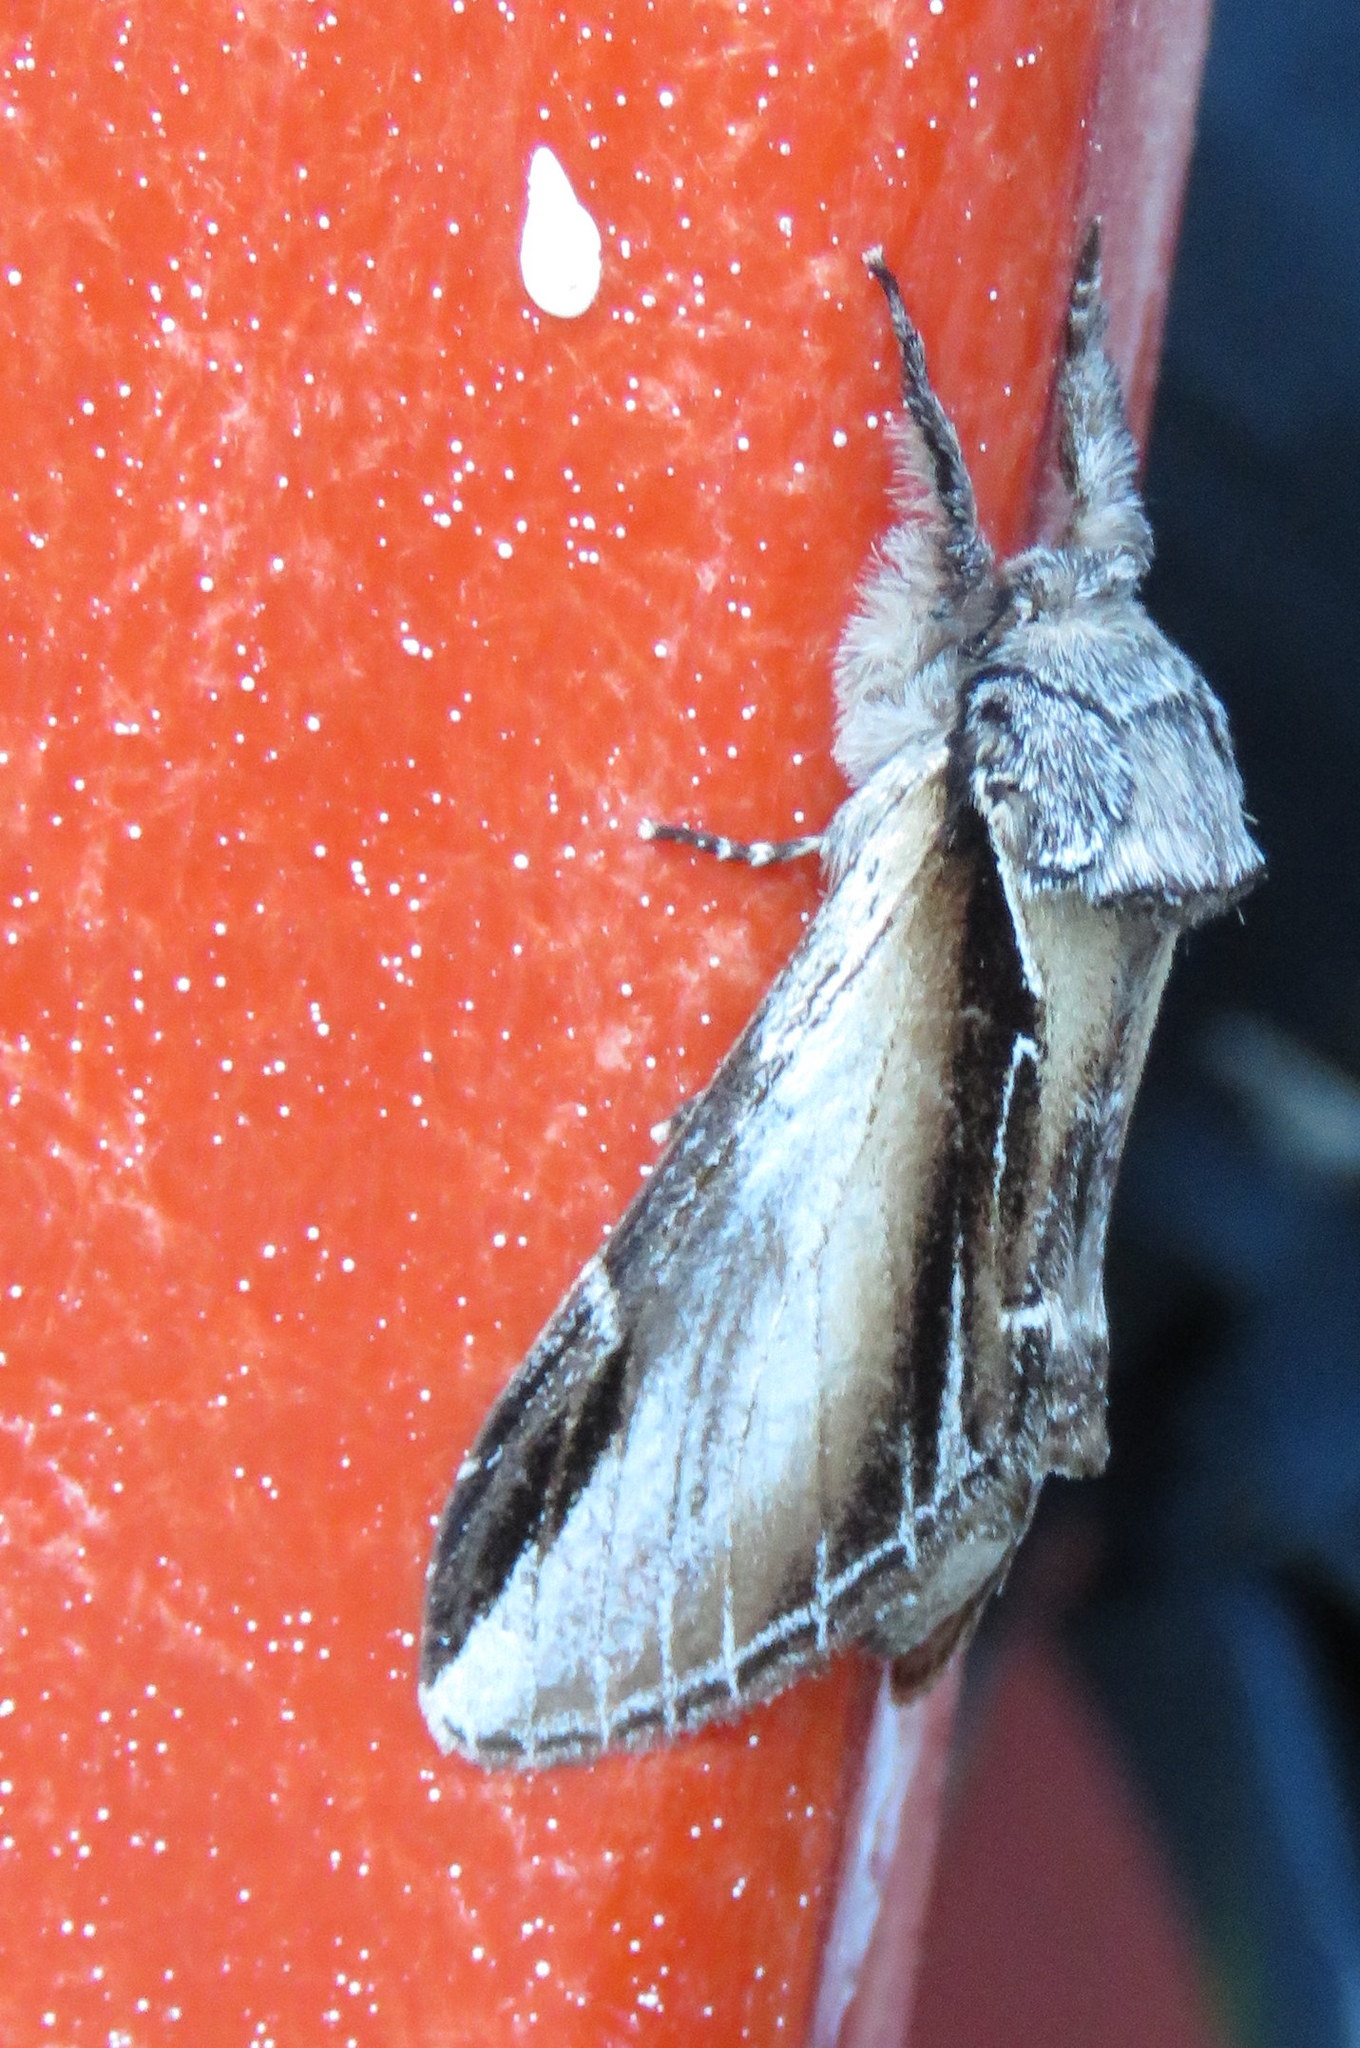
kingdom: Animalia
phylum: Arthropoda
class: Insecta
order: Lepidoptera
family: Notodontidae
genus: Pheosia
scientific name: Pheosia rimosa
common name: Black-rimmed prominent
